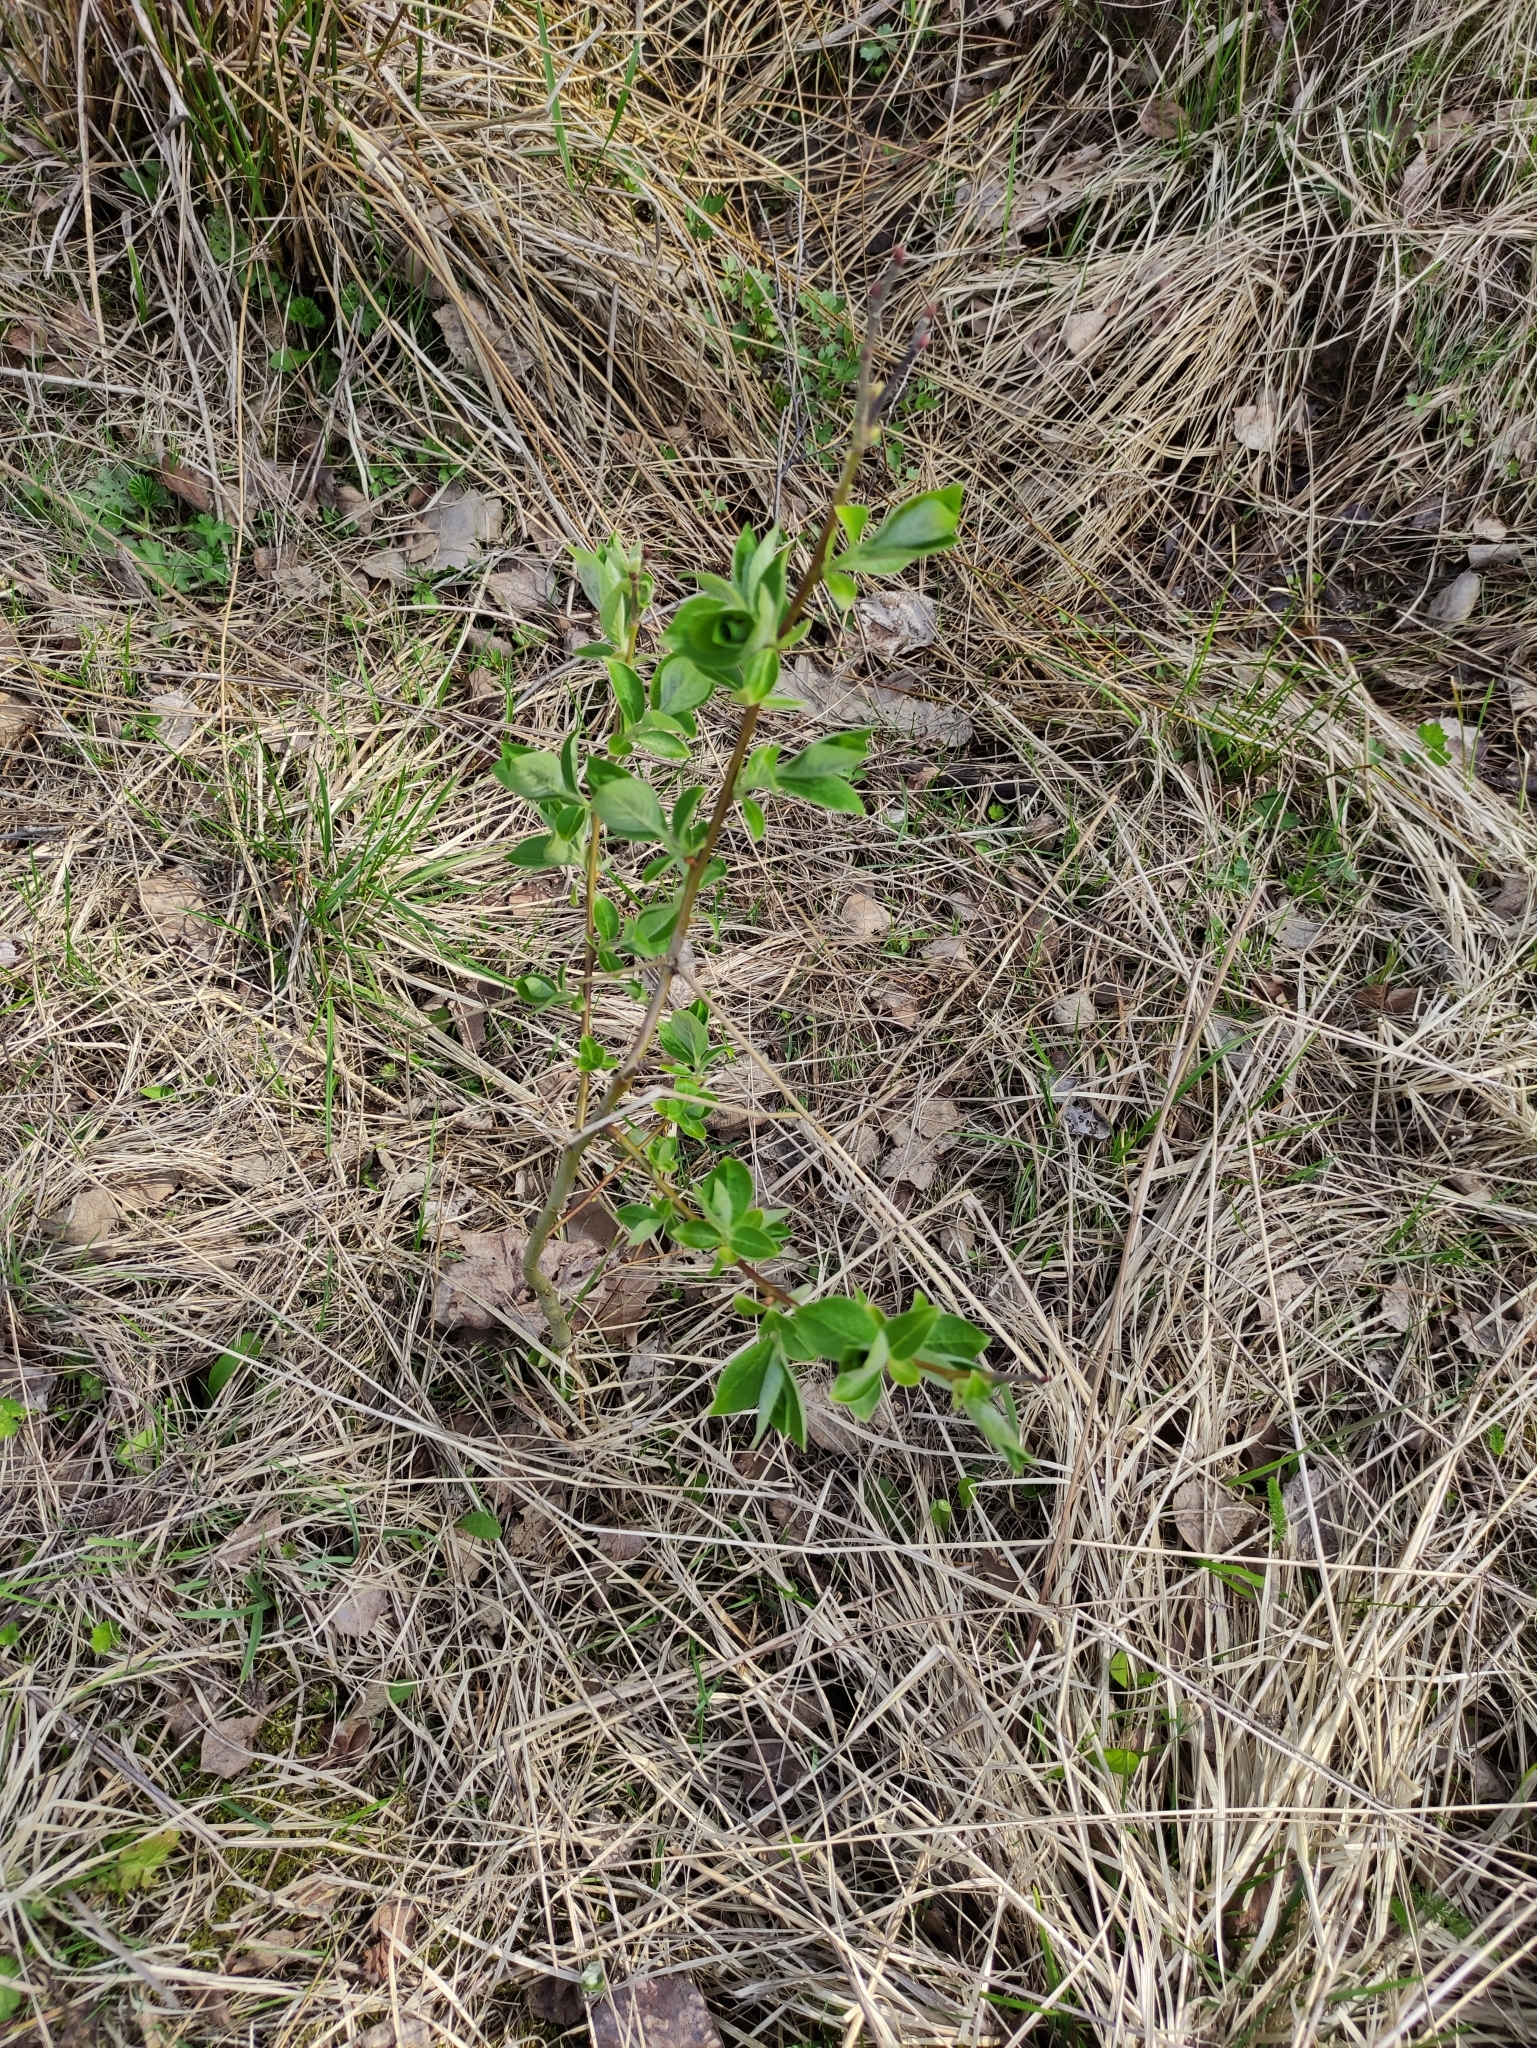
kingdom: Plantae
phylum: Tracheophyta
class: Magnoliopsida
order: Malpighiales
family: Salicaceae
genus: Salix
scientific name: Salix myrsinifolia
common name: Dark-leaved willow
